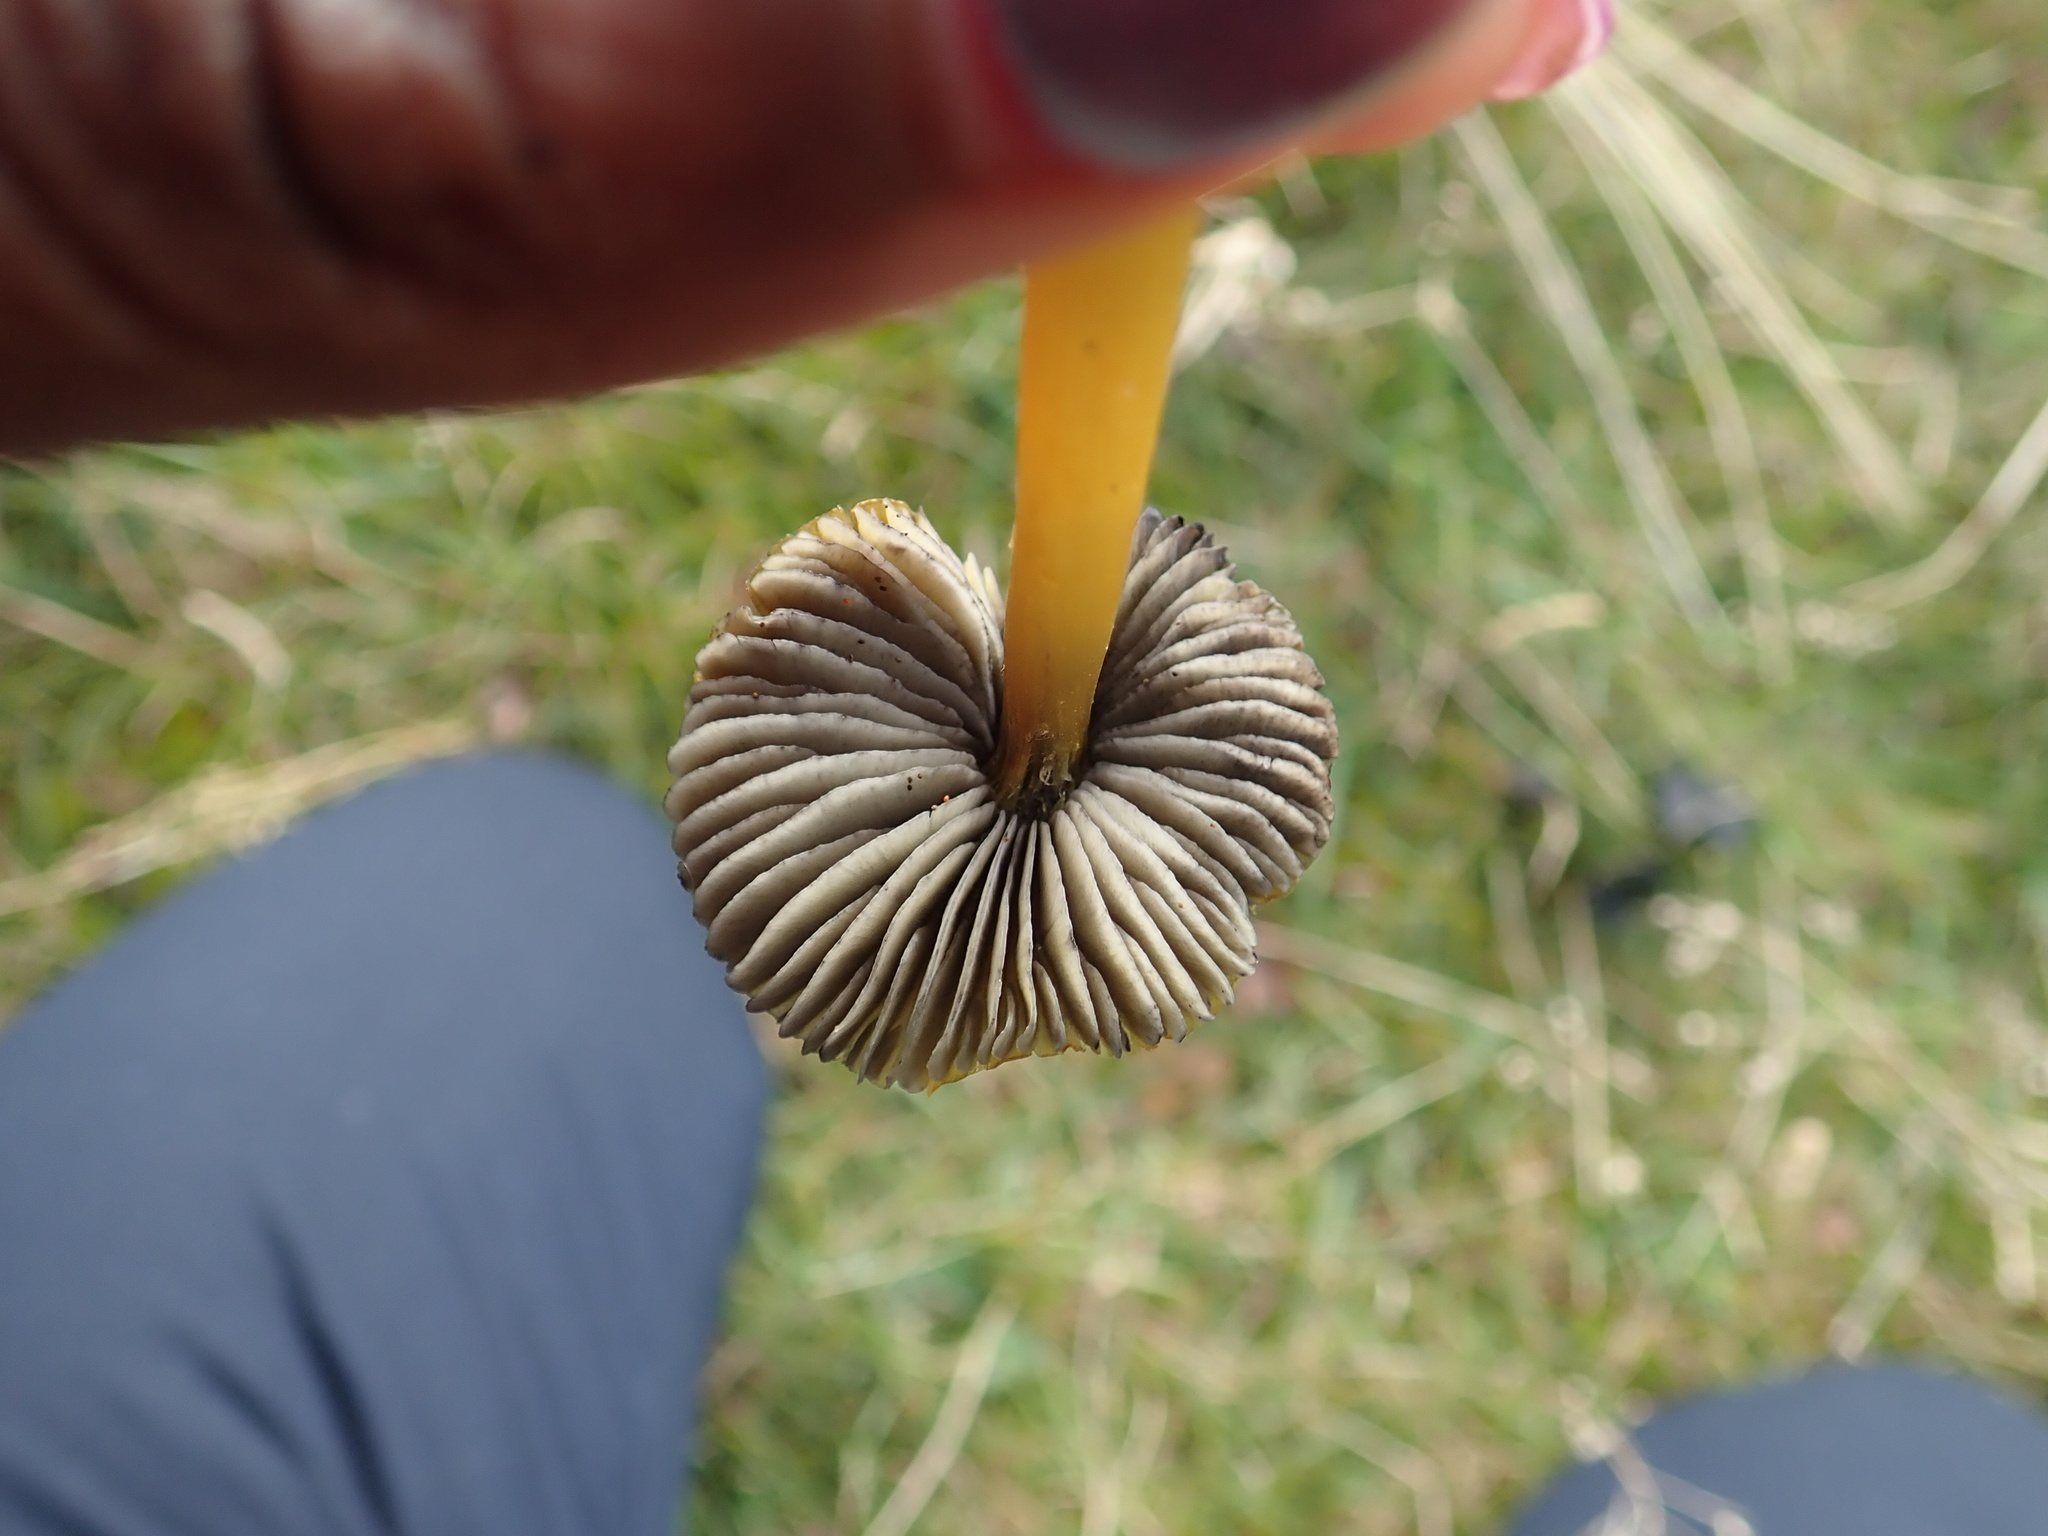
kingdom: Fungi
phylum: Basidiomycota
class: Agaricomycetes
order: Agaricales
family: Hygrophoraceae
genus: Hygrocybe
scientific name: Hygrocybe conica
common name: Blackening wax-cap
